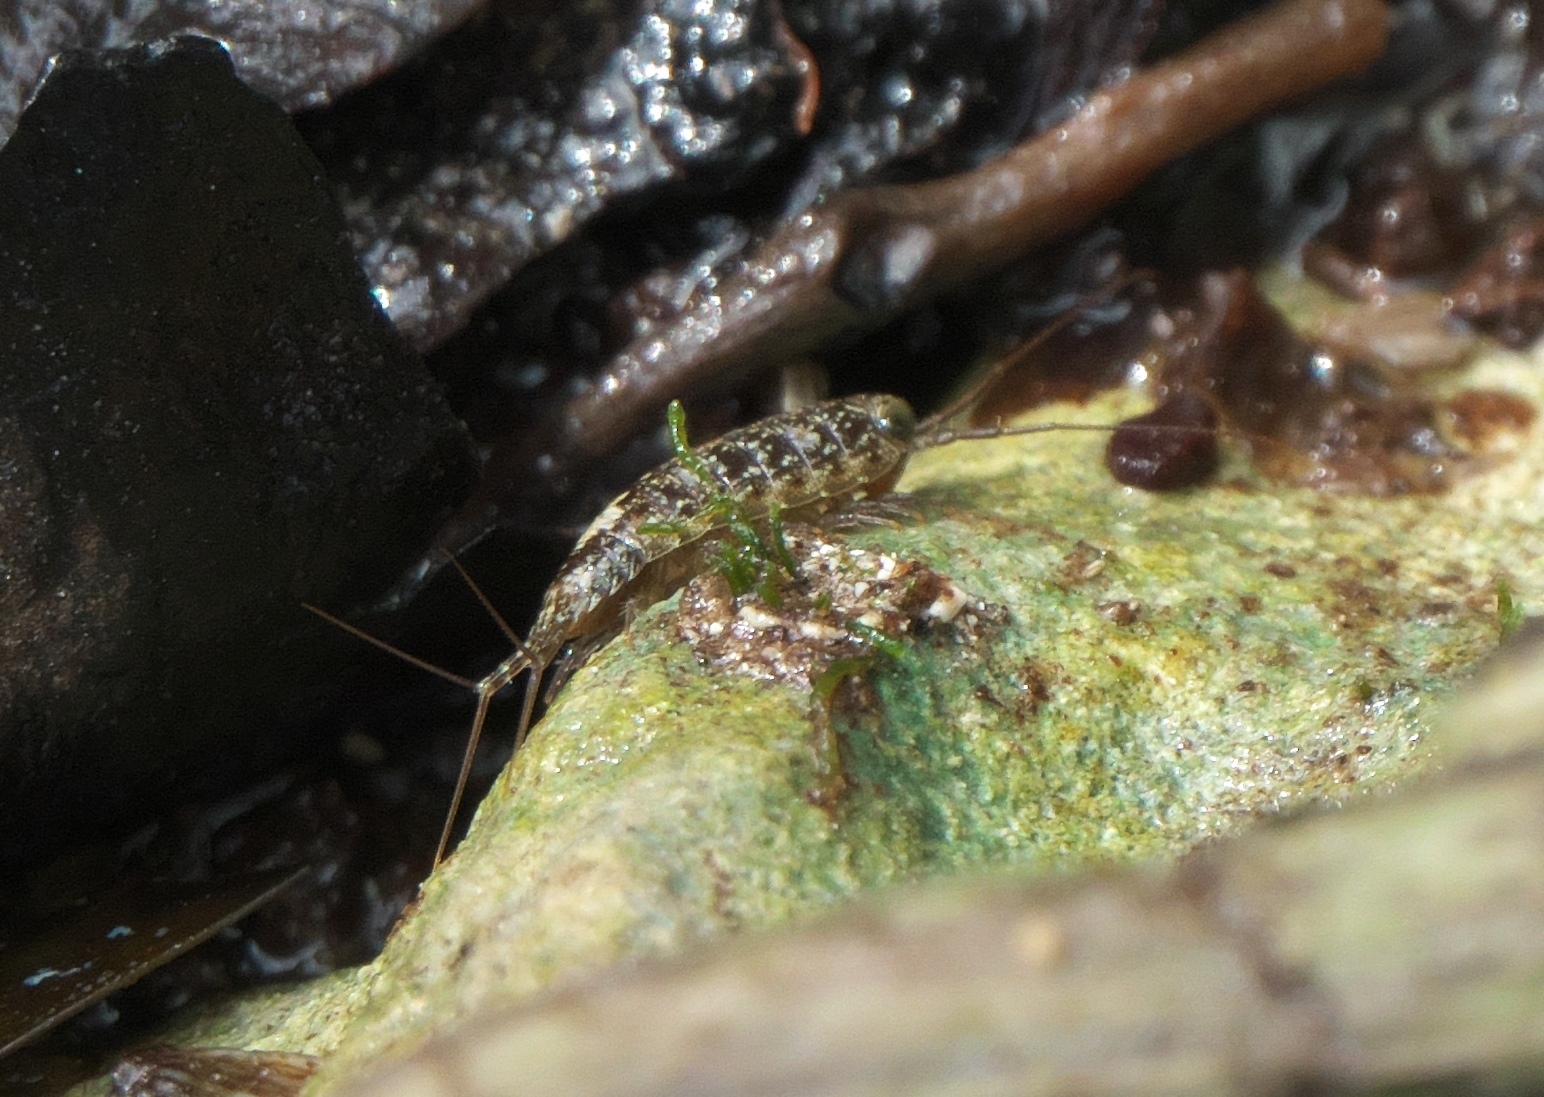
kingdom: Animalia
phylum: Arthropoda
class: Malacostraca
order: Isopoda
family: Ligiidae
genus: Ligia
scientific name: Ligia exotica
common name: Wharf roach
